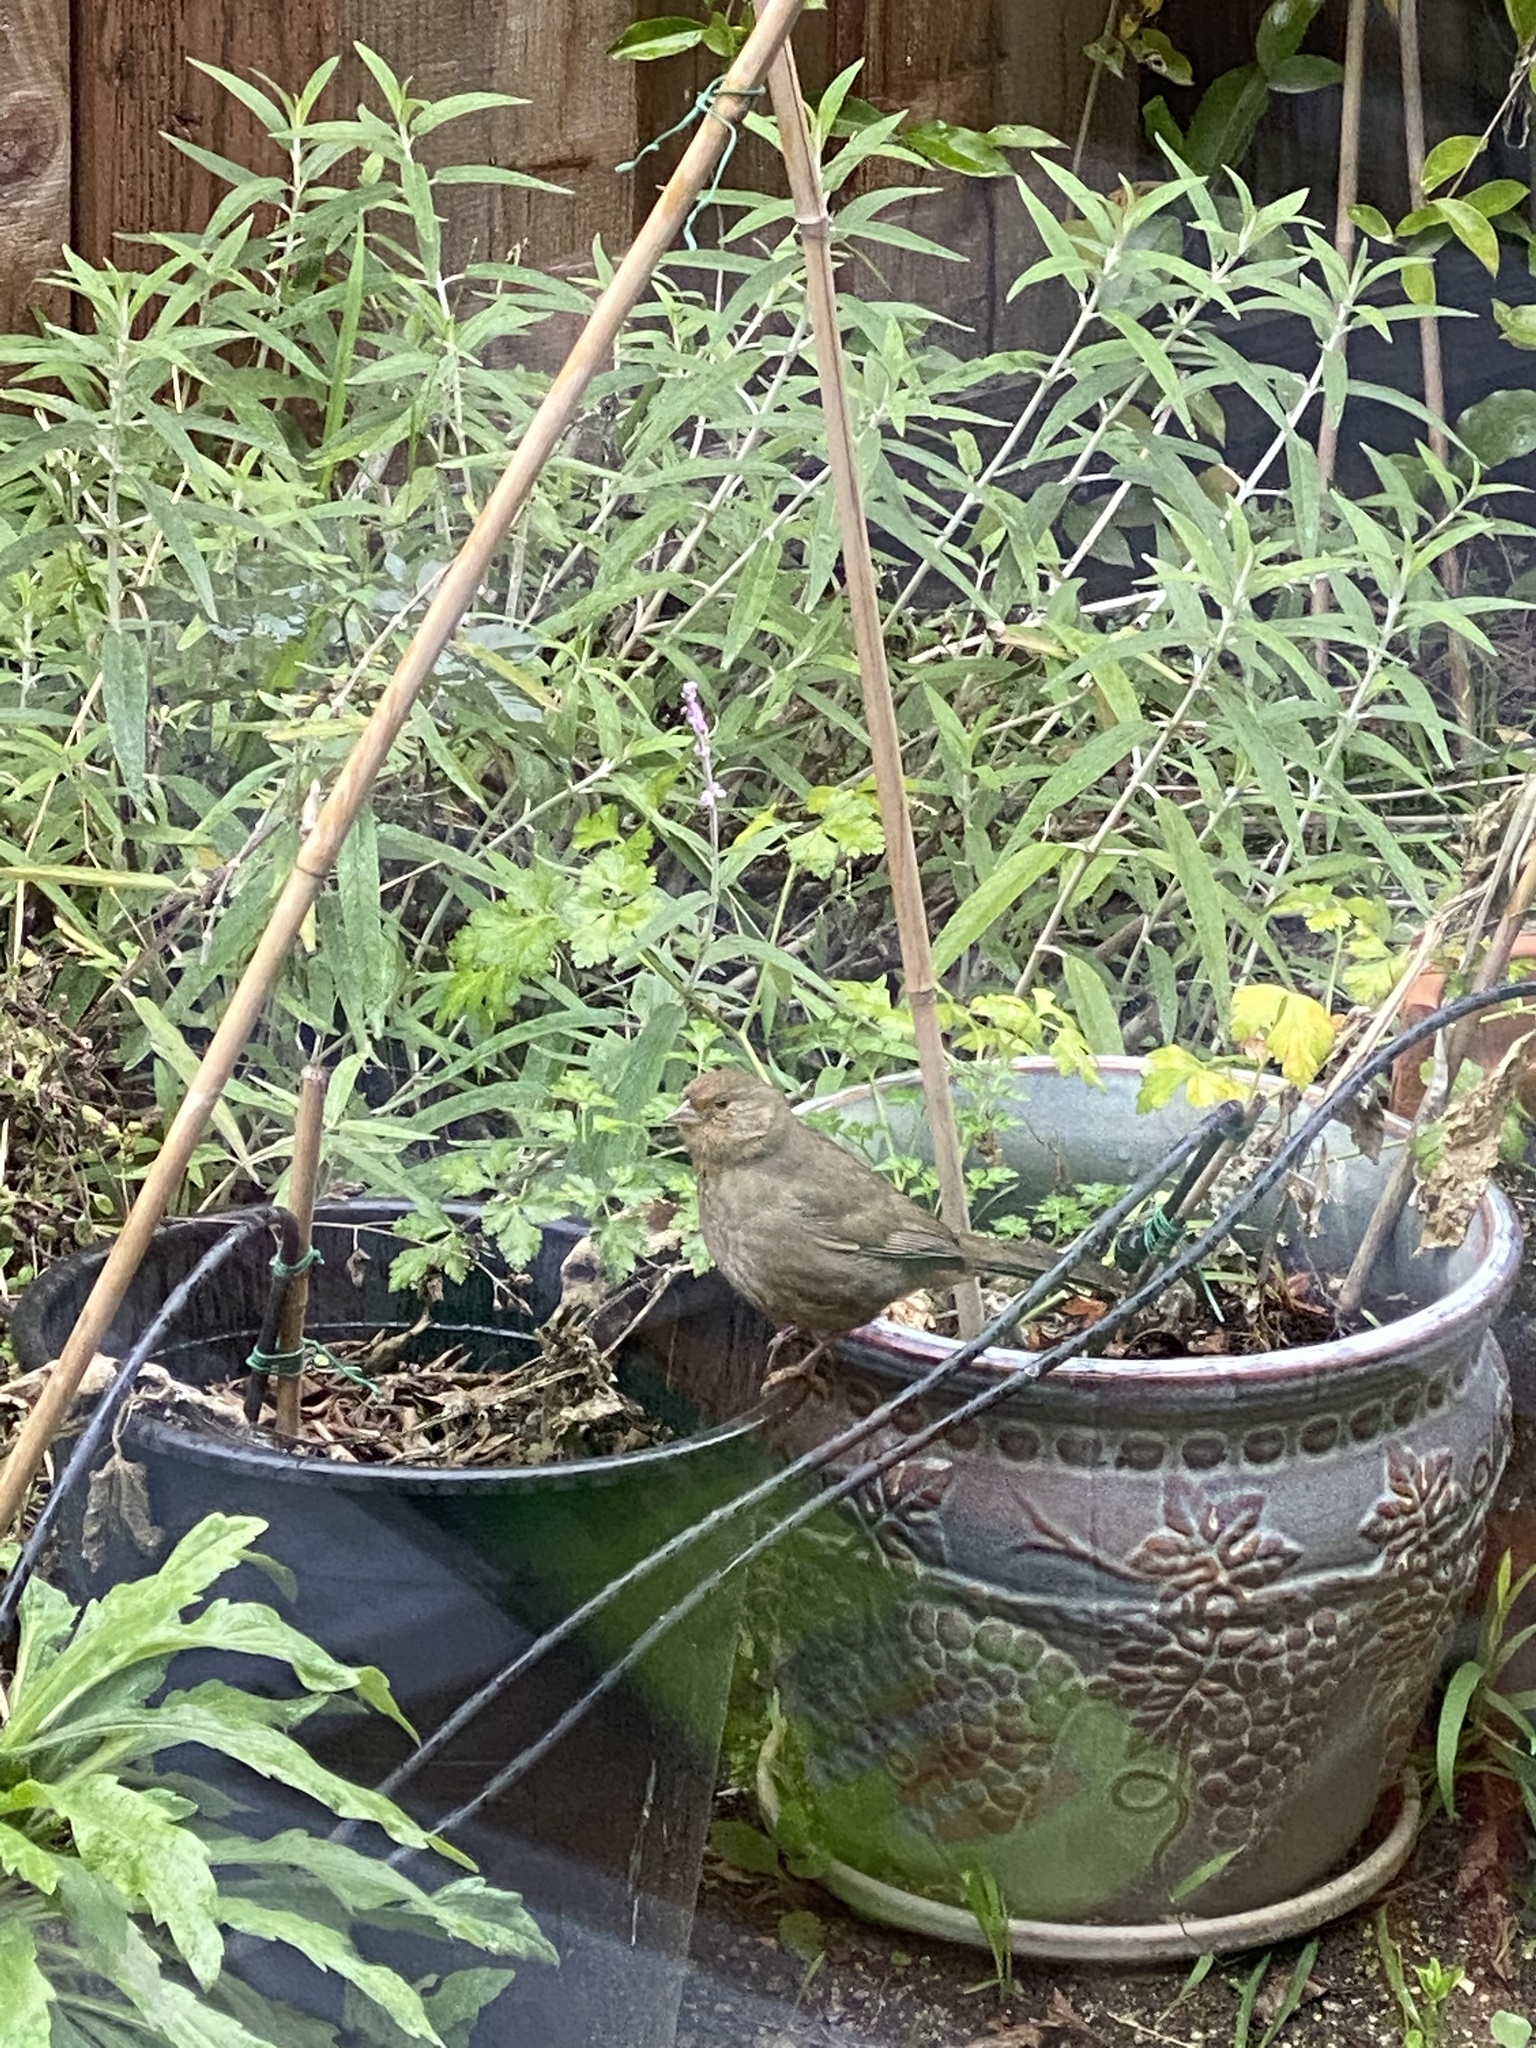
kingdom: Animalia
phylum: Chordata
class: Aves
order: Passeriformes
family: Passerellidae
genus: Melozone
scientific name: Melozone crissalis
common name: California towhee
